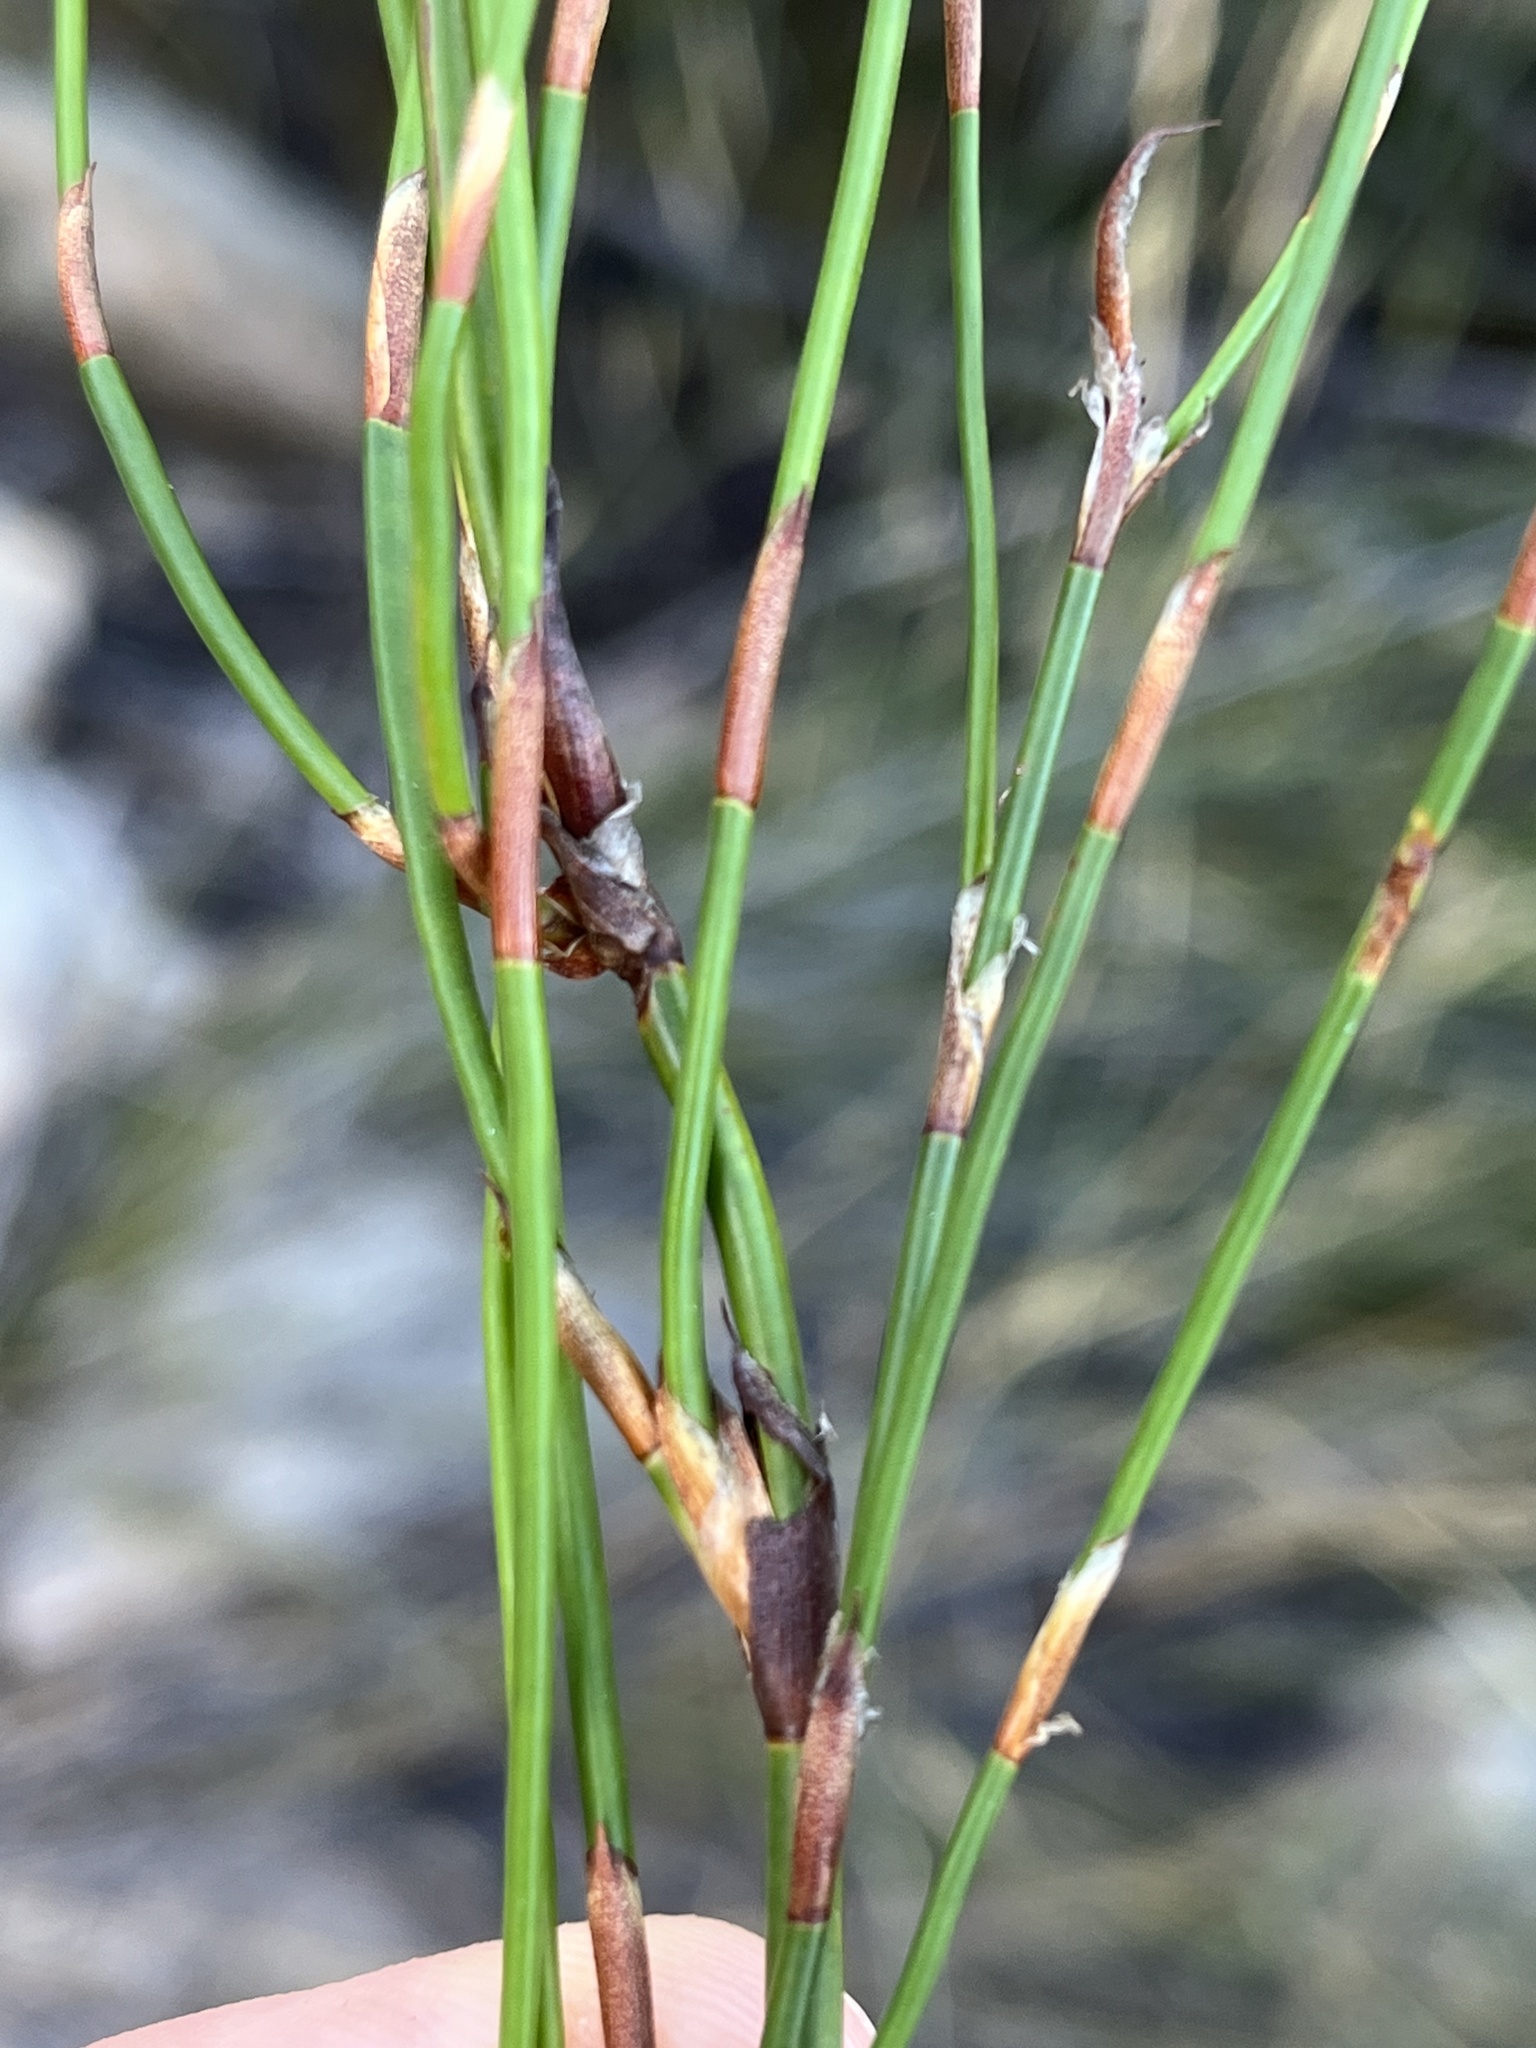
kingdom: Plantae
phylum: Tracheophyta
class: Liliopsida
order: Poales
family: Restionaceae
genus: Restio
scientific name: Restio brachiatus
